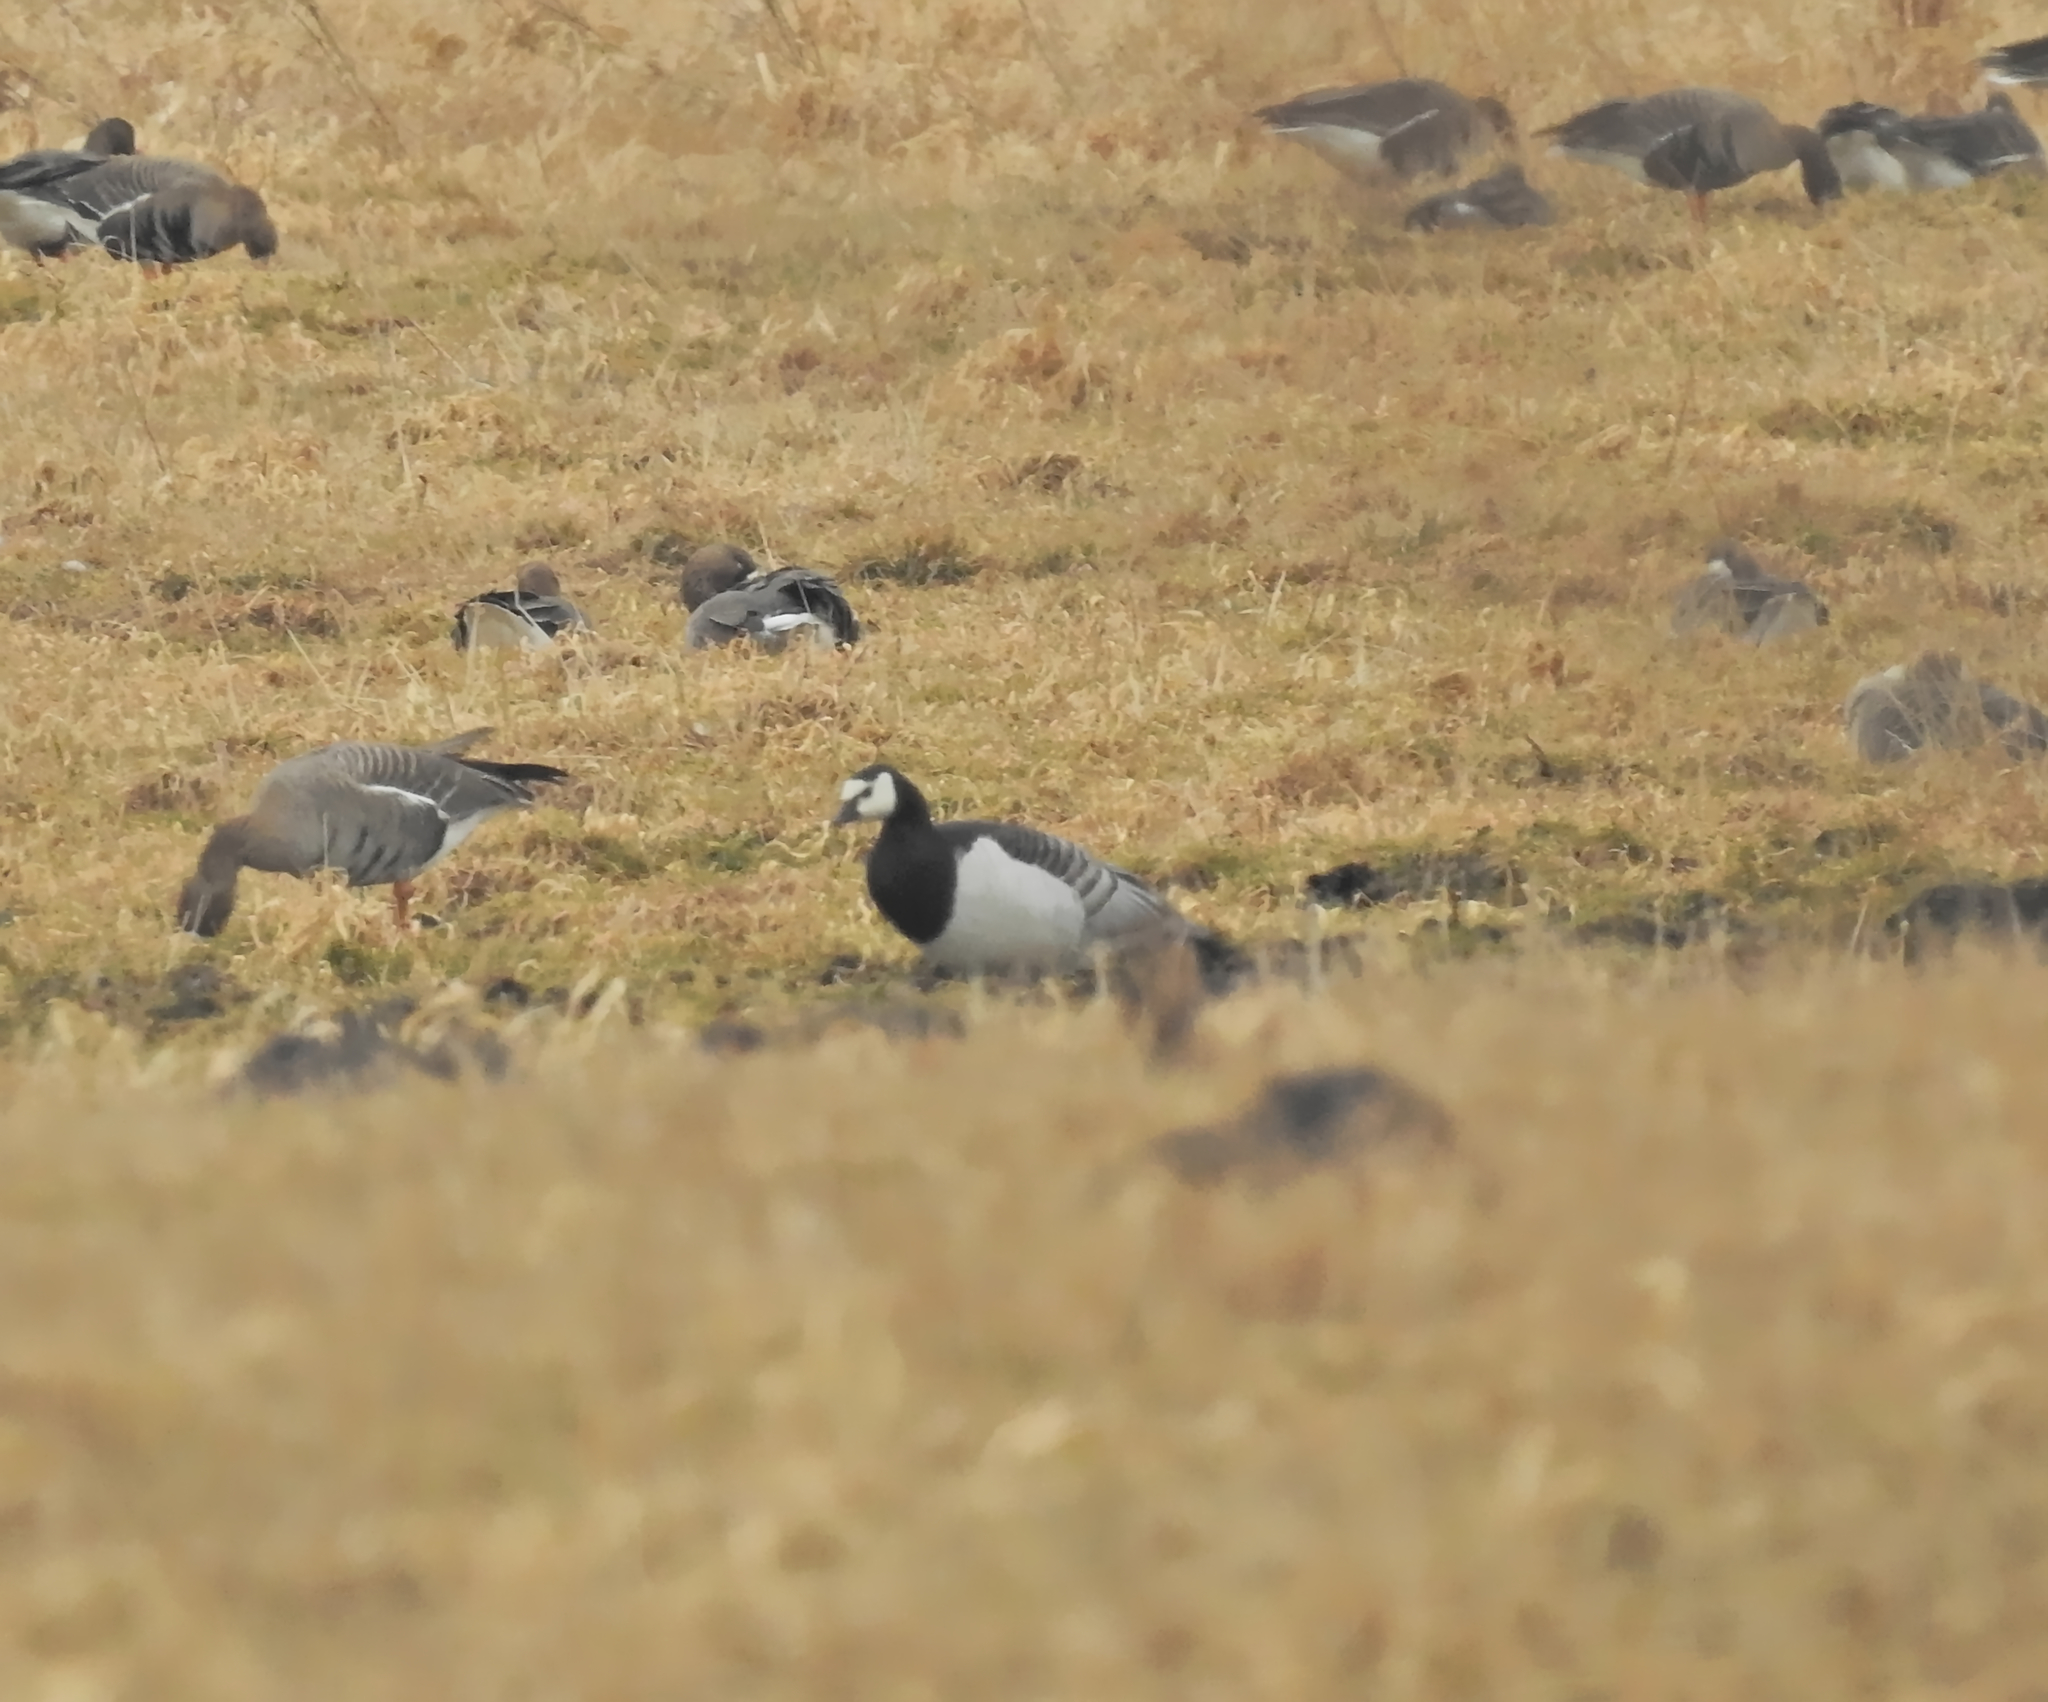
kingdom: Animalia
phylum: Chordata
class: Aves
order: Anseriformes
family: Anatidae
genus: Branta
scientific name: Branta leucopsis
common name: Barnacle goose
